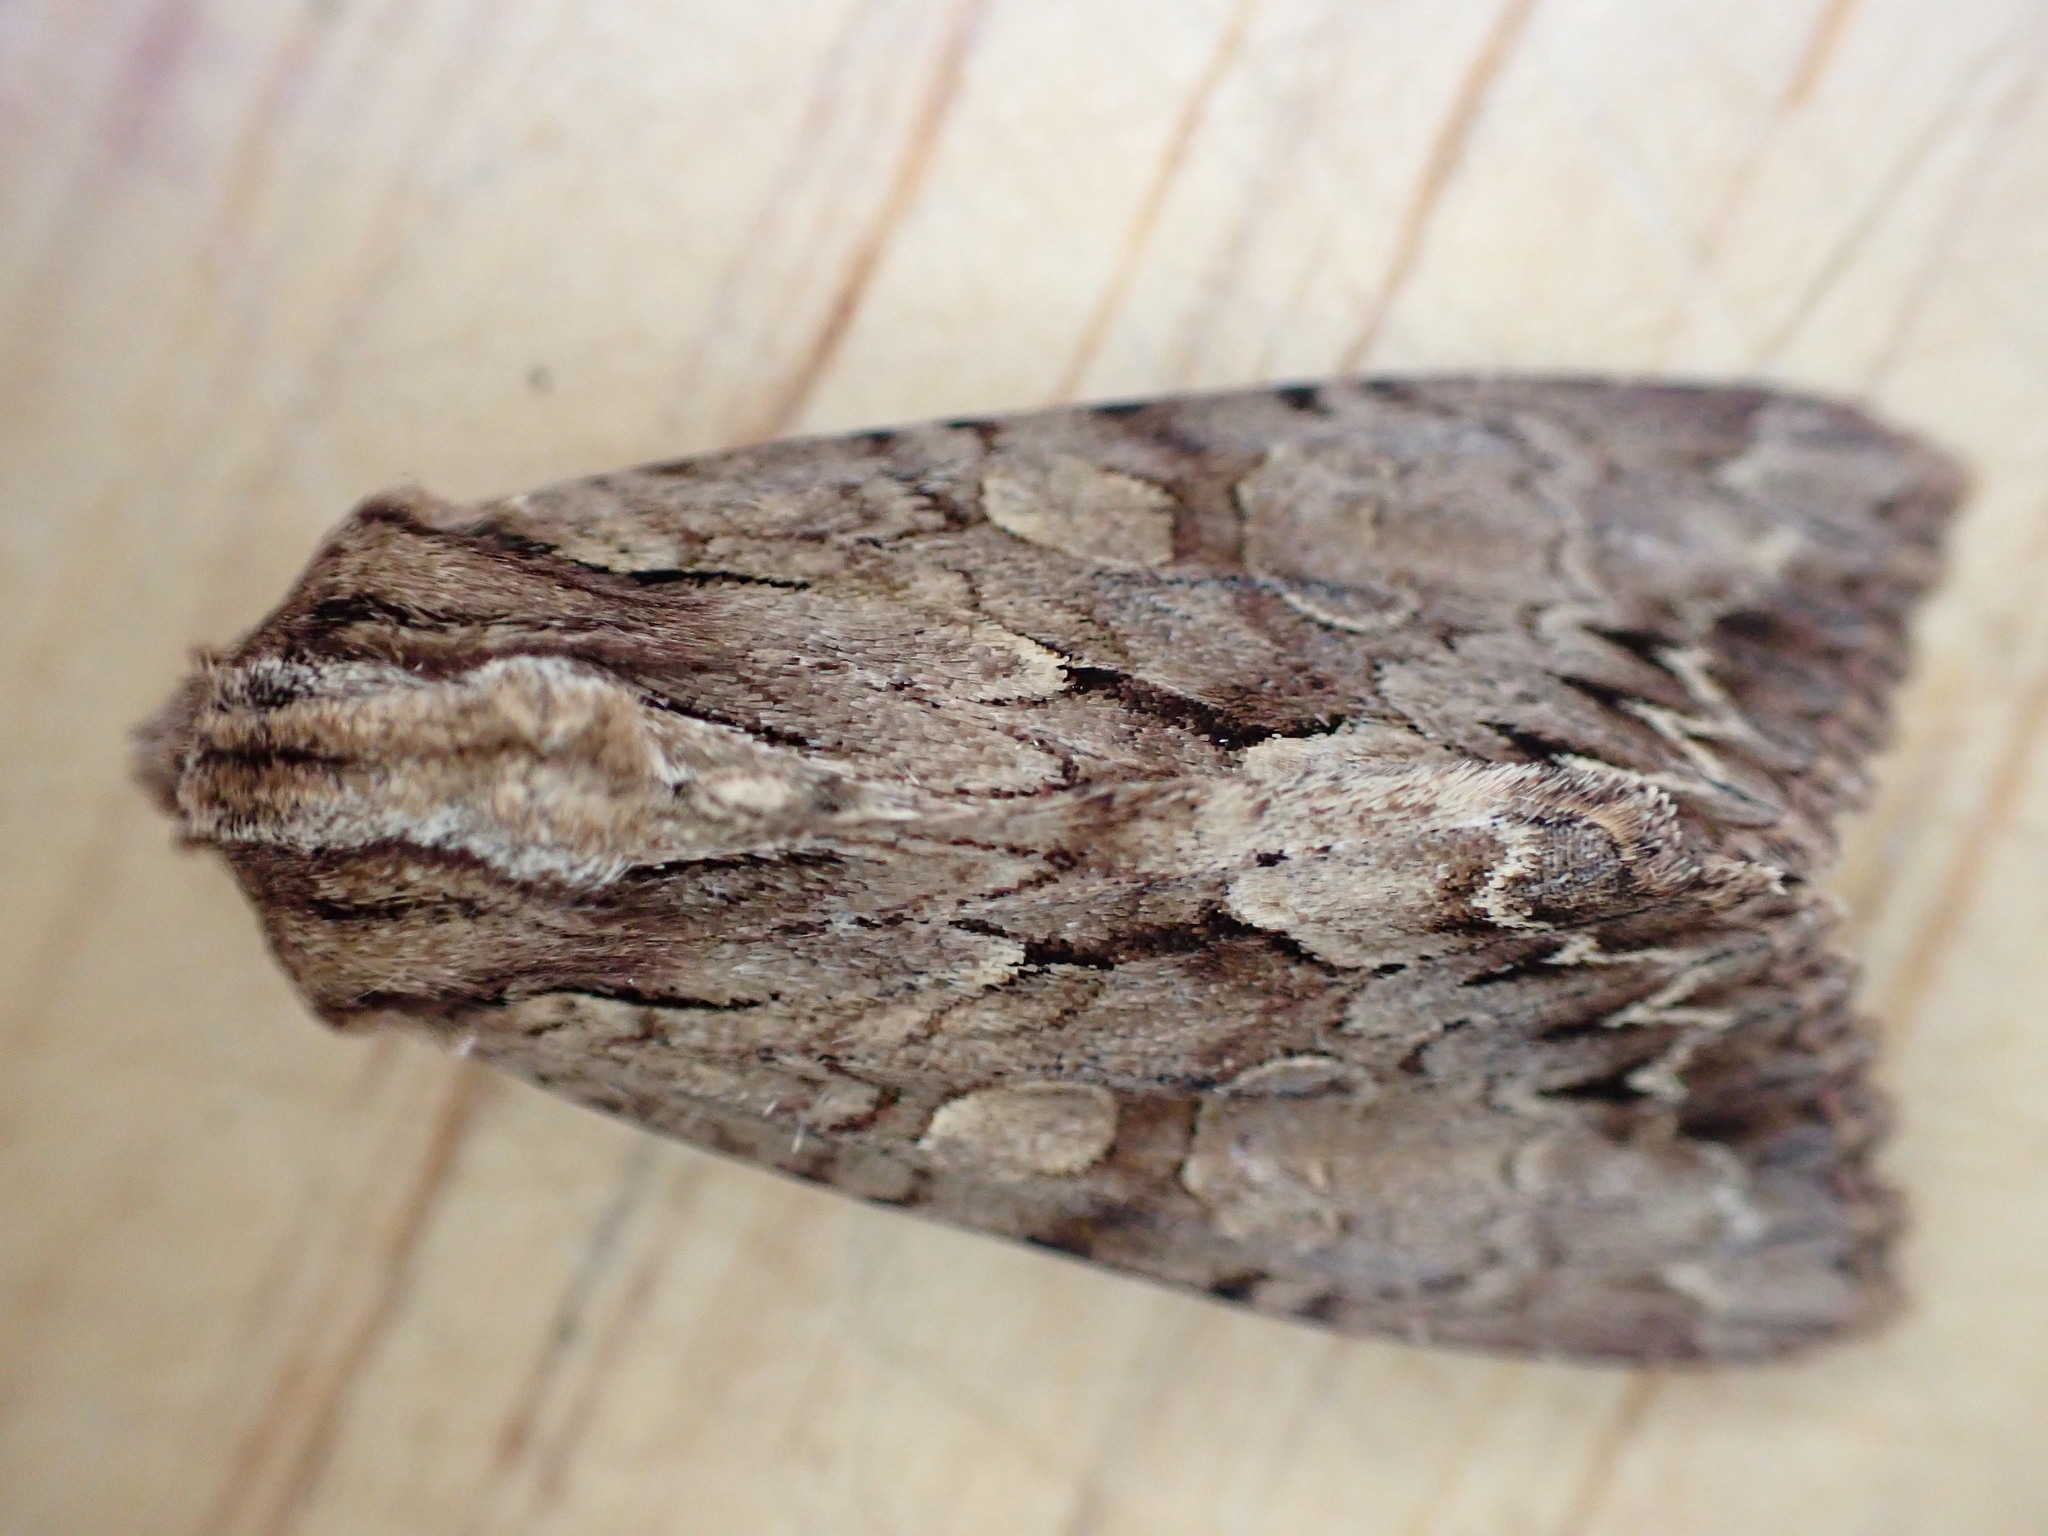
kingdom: Animalia
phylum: Arthropoda
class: Insecta
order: Lepidoptera
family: Noctuidae
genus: Apamea
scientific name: Apamea monoglypha
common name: Dark arches
